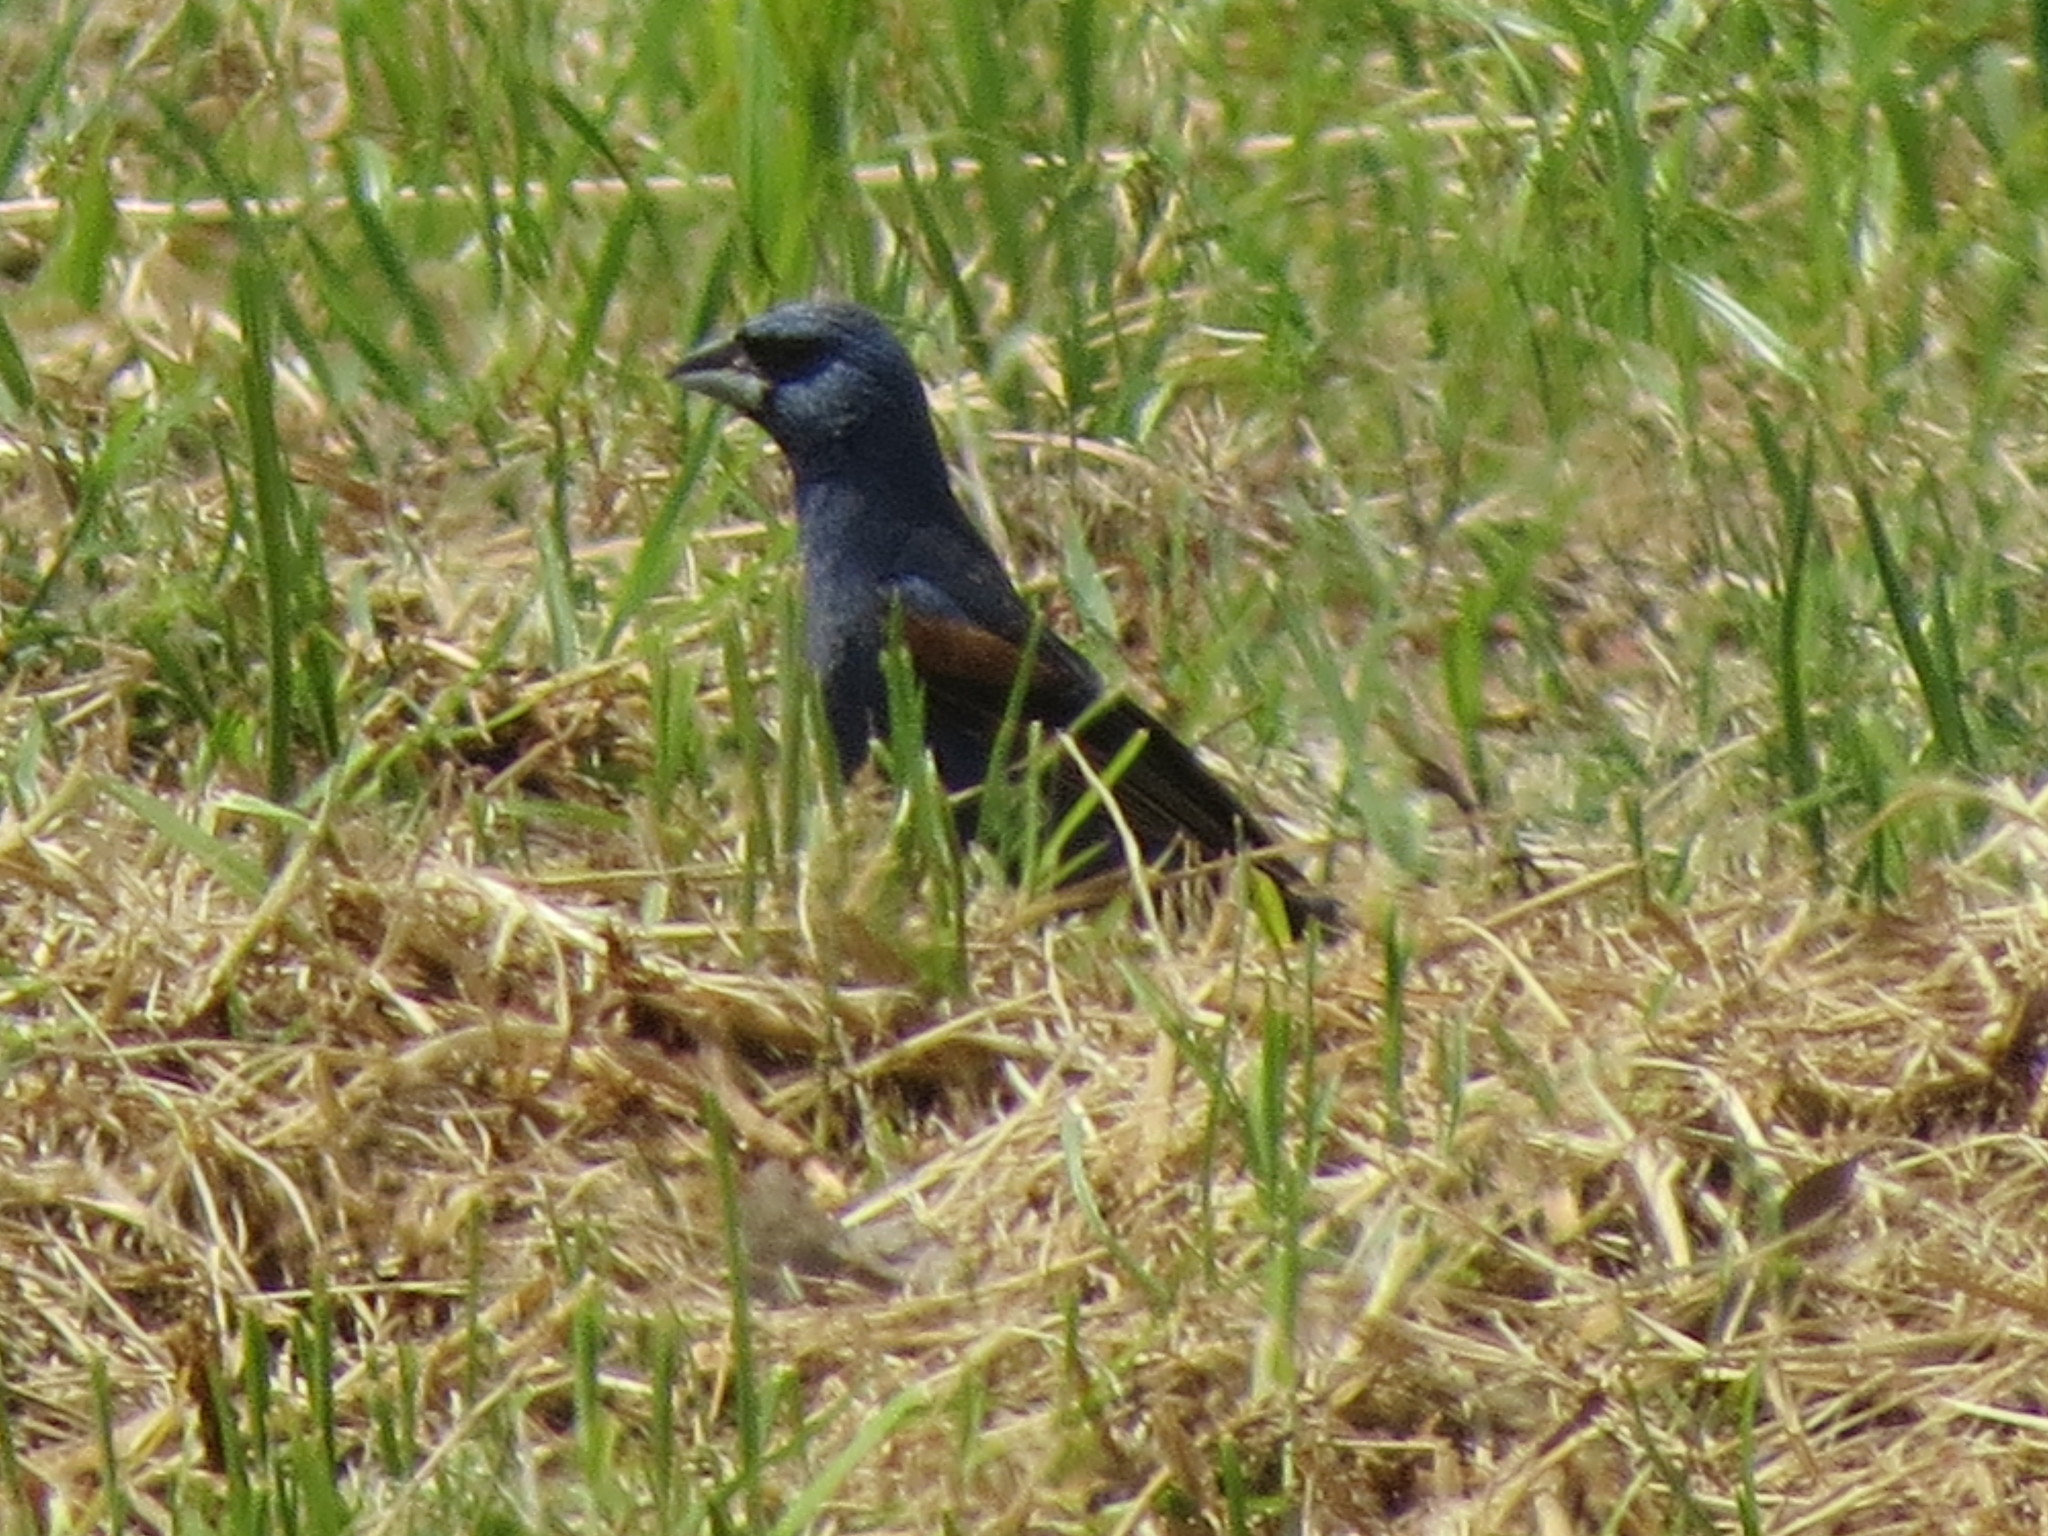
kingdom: Animalia
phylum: Chordata
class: Aves
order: Passeriformes
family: Cardinalidae
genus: Passerina
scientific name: Passerina caerulea
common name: Blue grosbeak
